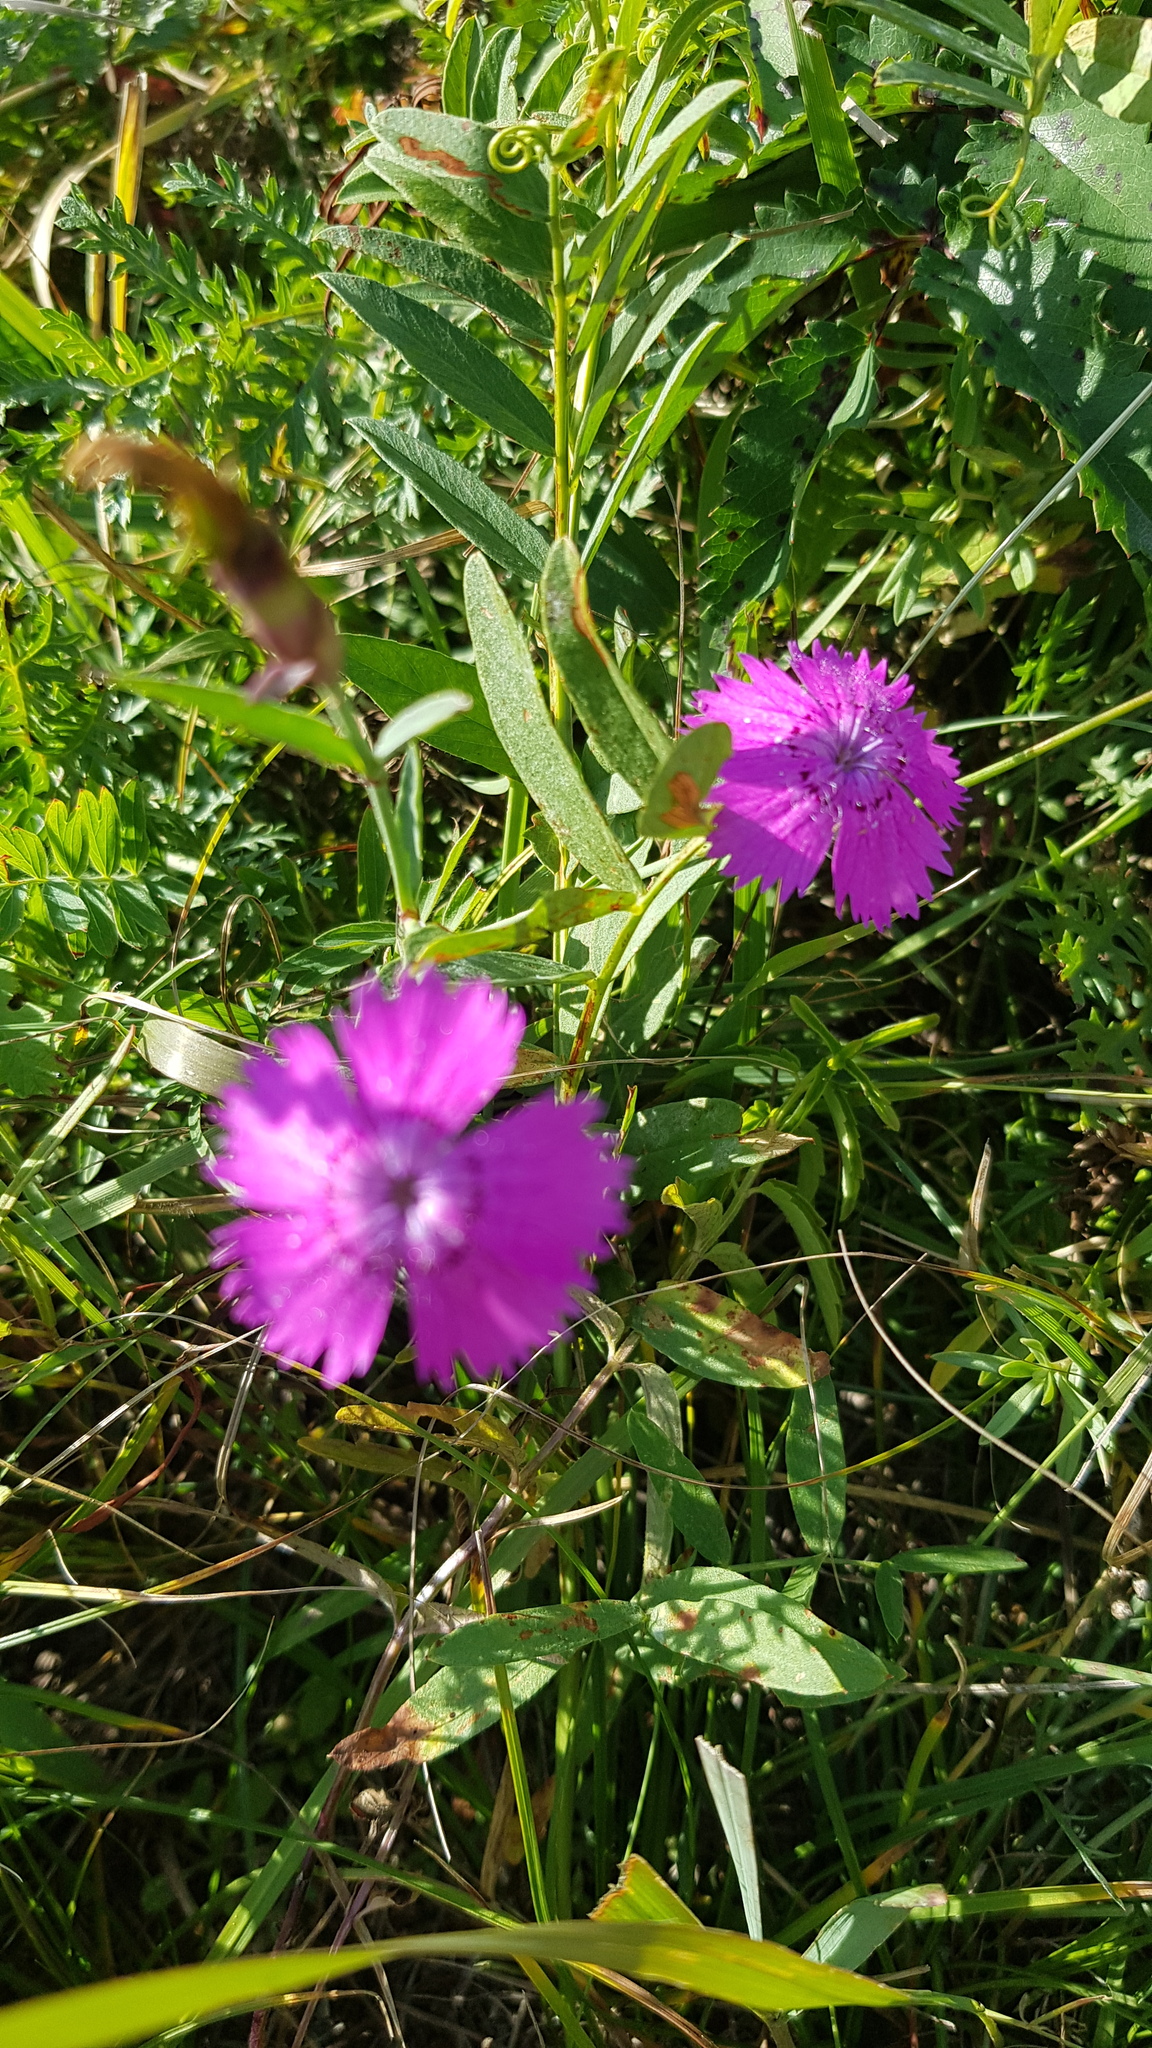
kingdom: Plantae
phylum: Tracheophyta
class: Magnoliopsida
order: Caryophyllales
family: Caryophyllaceae
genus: Dianthus
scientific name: Dianthus chinensis
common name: Rainbow pink
